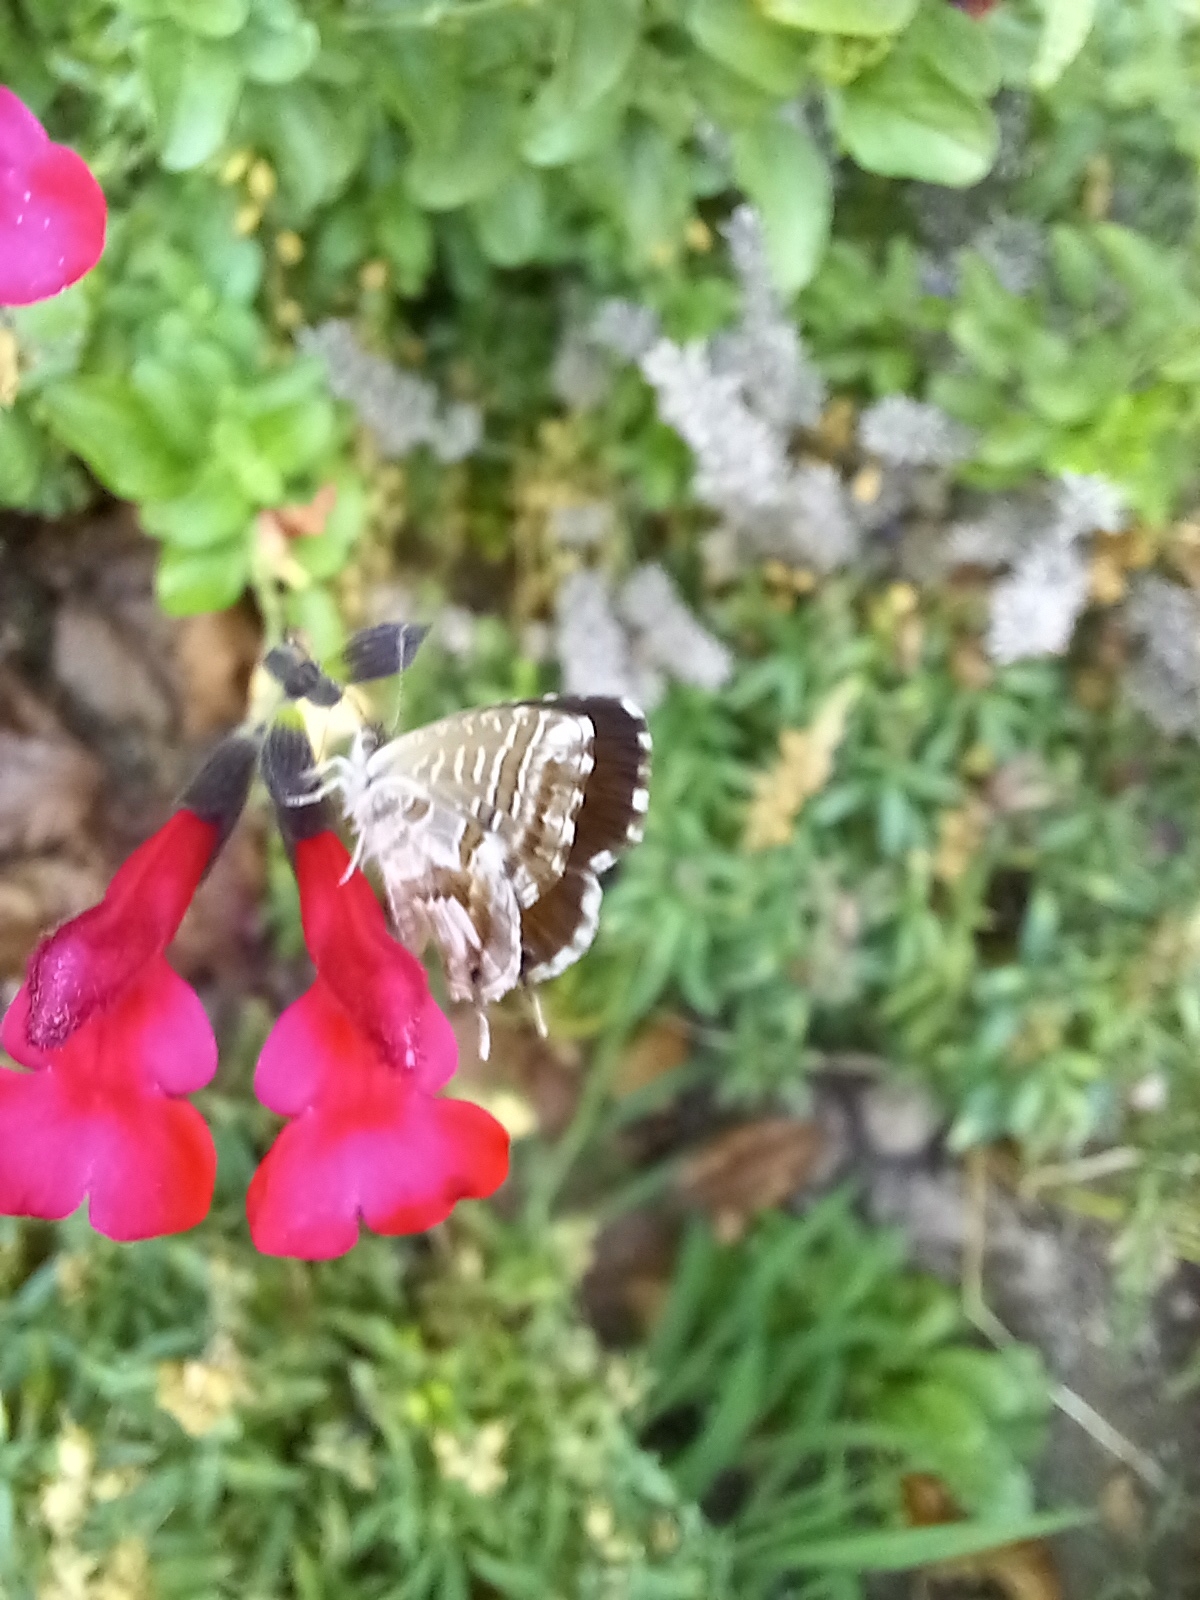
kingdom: Animalia
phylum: Arthropoda
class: Insecta
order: Lepidoptera
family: Lycaenidae
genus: Cacyreus
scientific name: Cacyreus marshalli
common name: Geranium bronze
